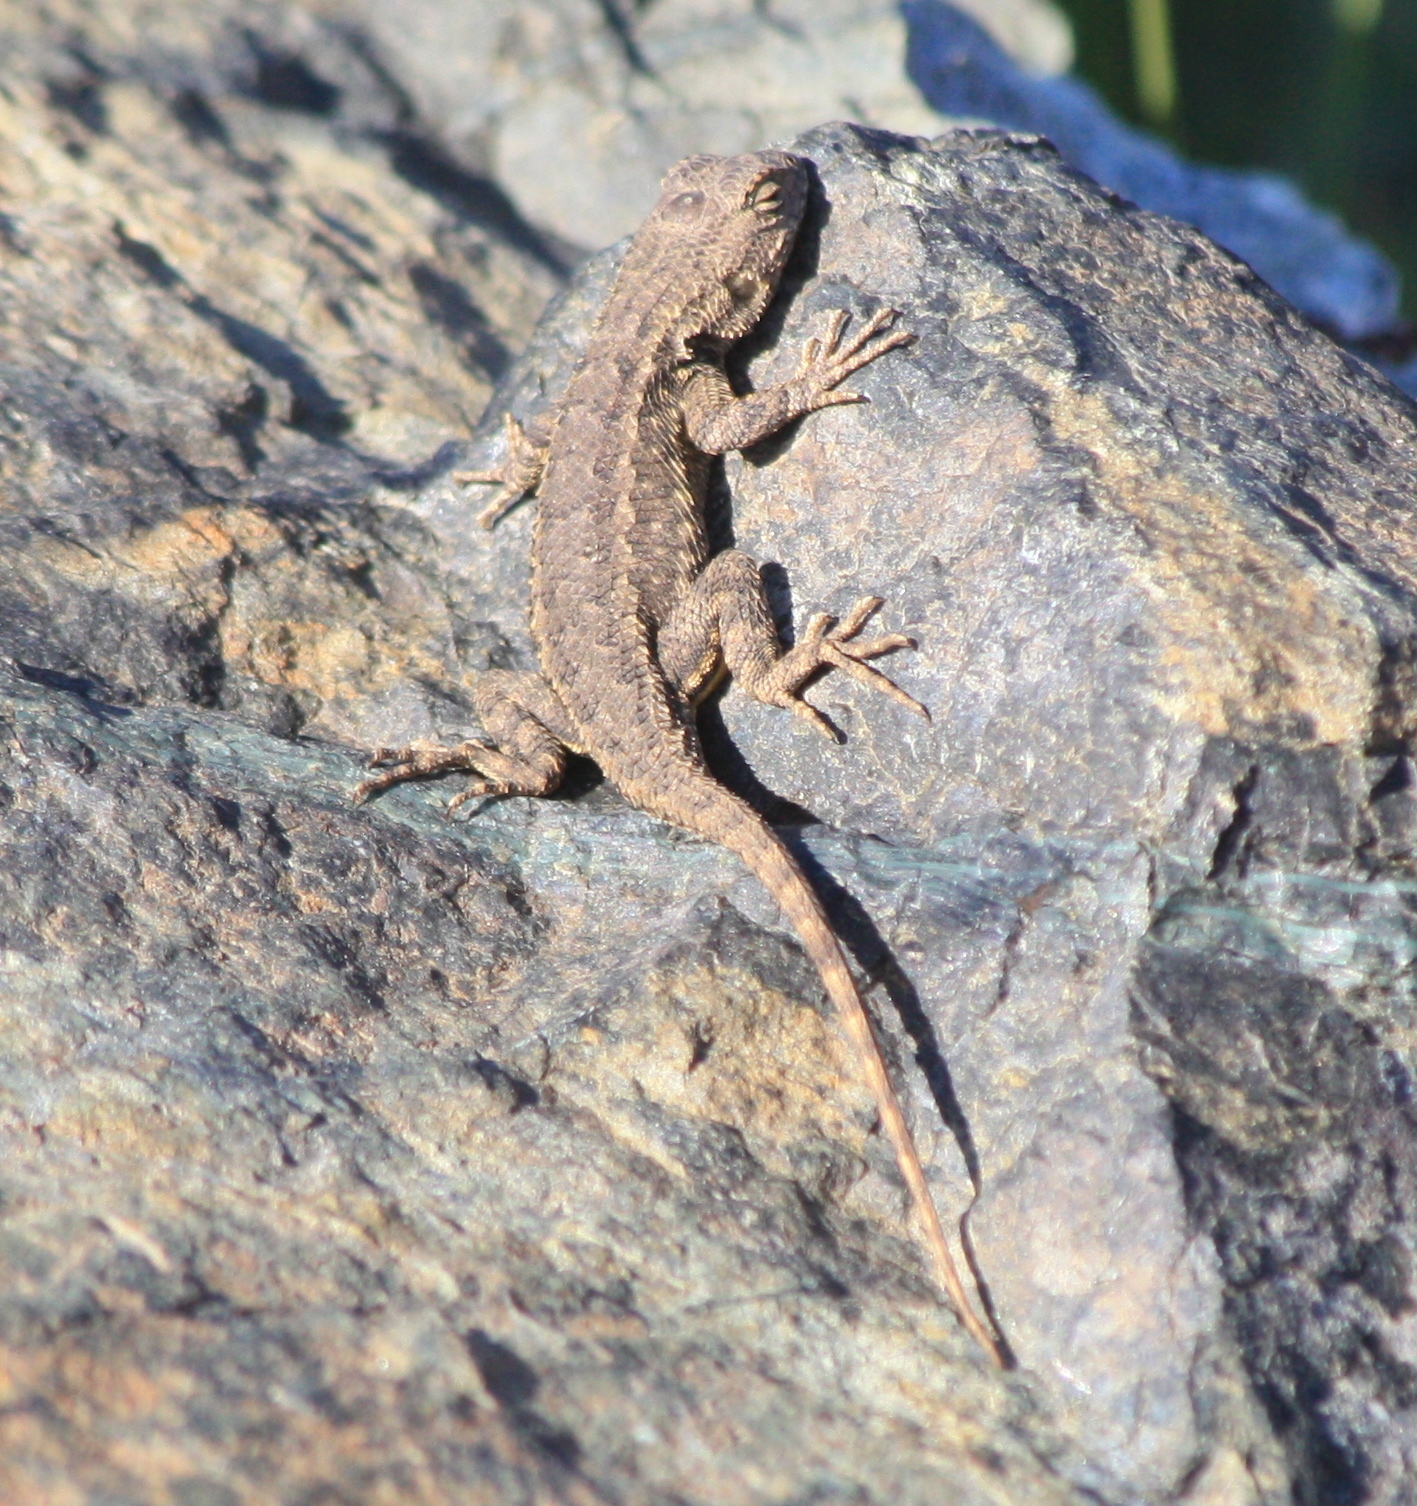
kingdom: Animalia
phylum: Chordata
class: Squamata
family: Phrynosomatidae
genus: Sceloporus
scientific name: Sceloporus occidentalis
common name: Western fence lizard
